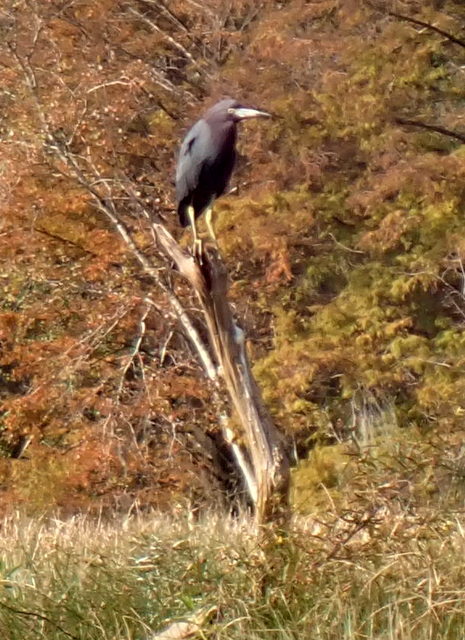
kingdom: Animalia
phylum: Chordata
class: Aves
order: Pelecaniformes
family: Ardeidae
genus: Egretta
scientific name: Egretta caerulea
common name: Little blue heron
